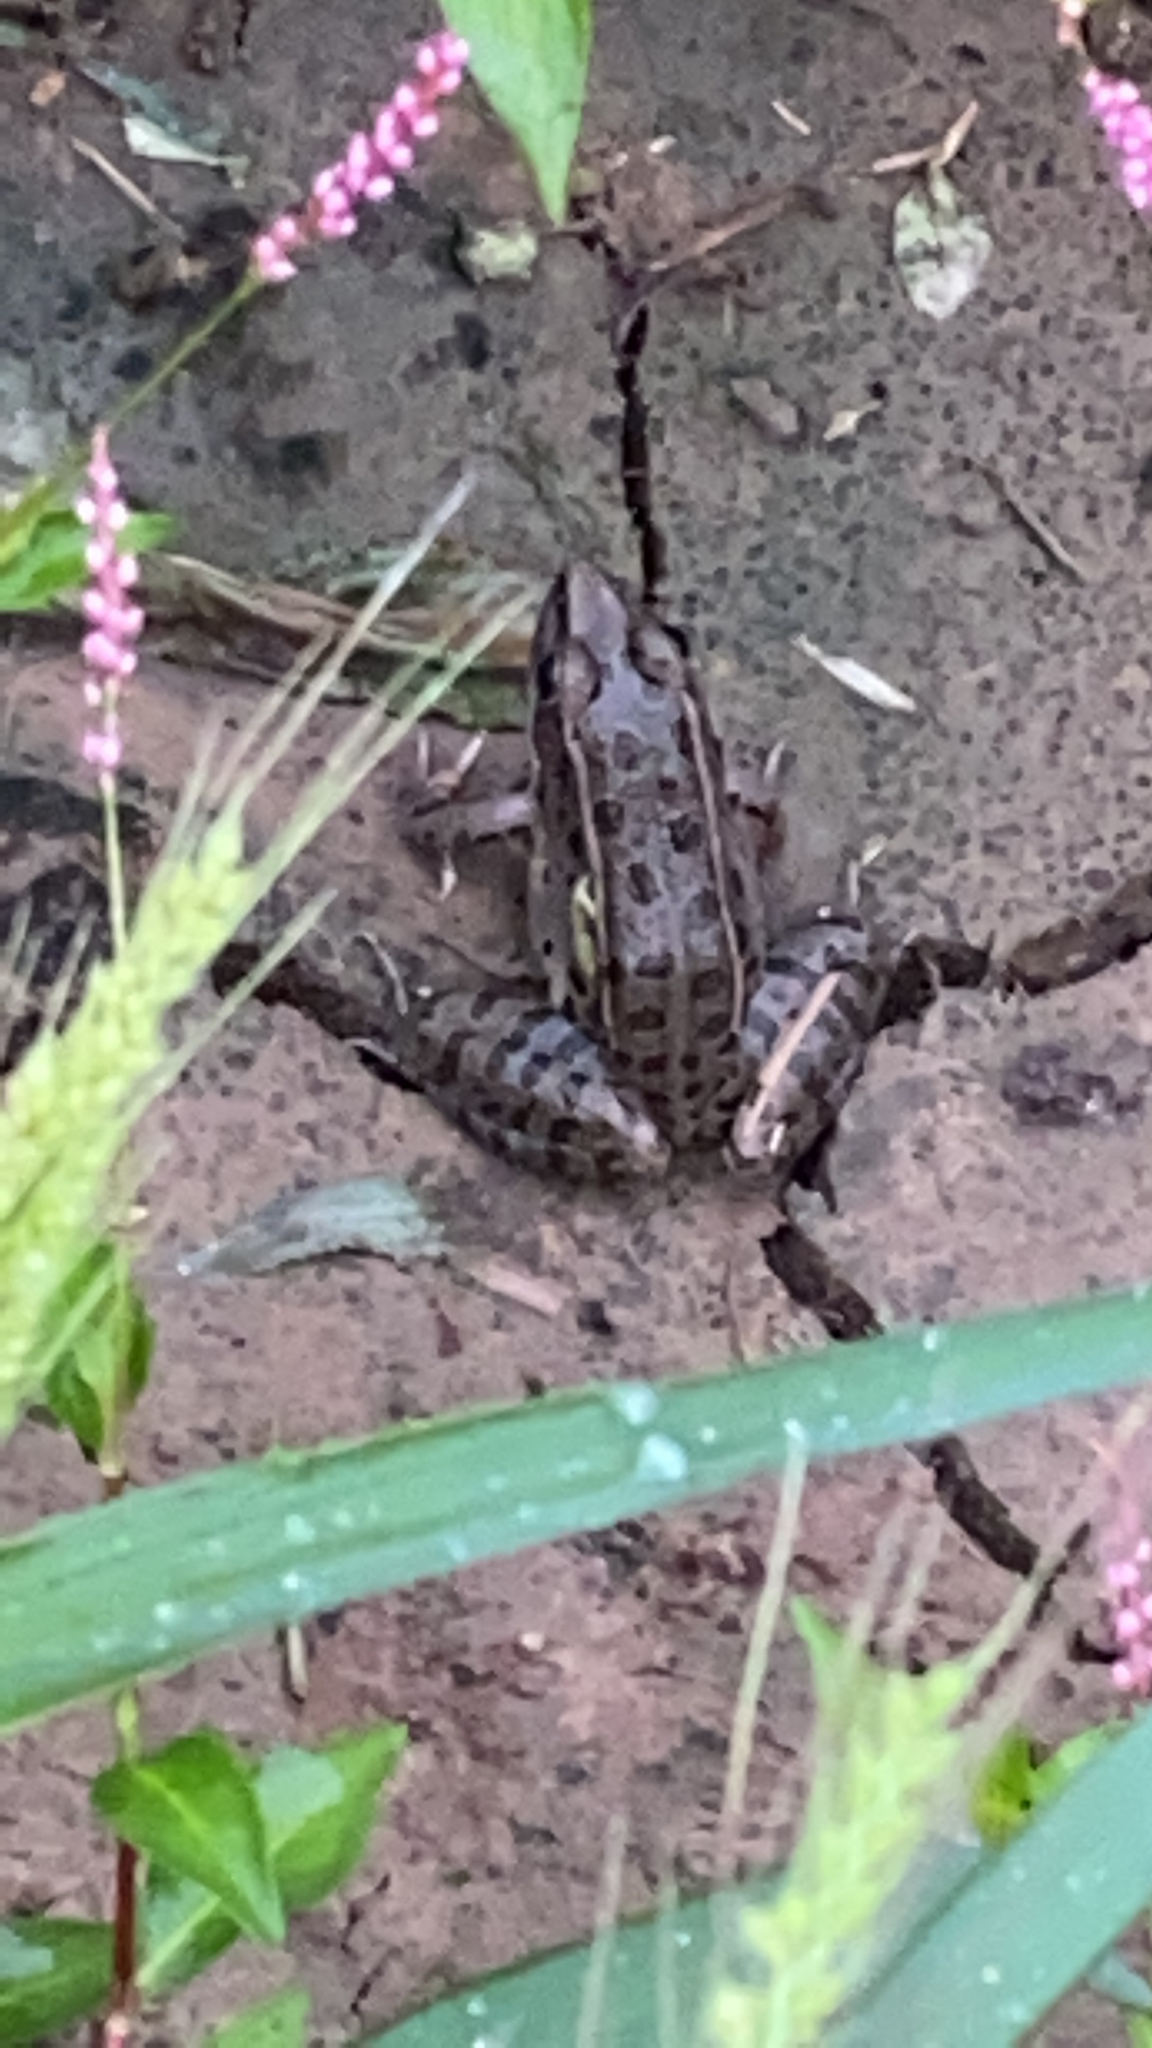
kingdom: Animalia
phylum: Chordata
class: Amphibia
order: Anura
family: Ranidae
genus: Lithobates
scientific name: Lithobates sphenocephalus
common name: Southern leopard frog
